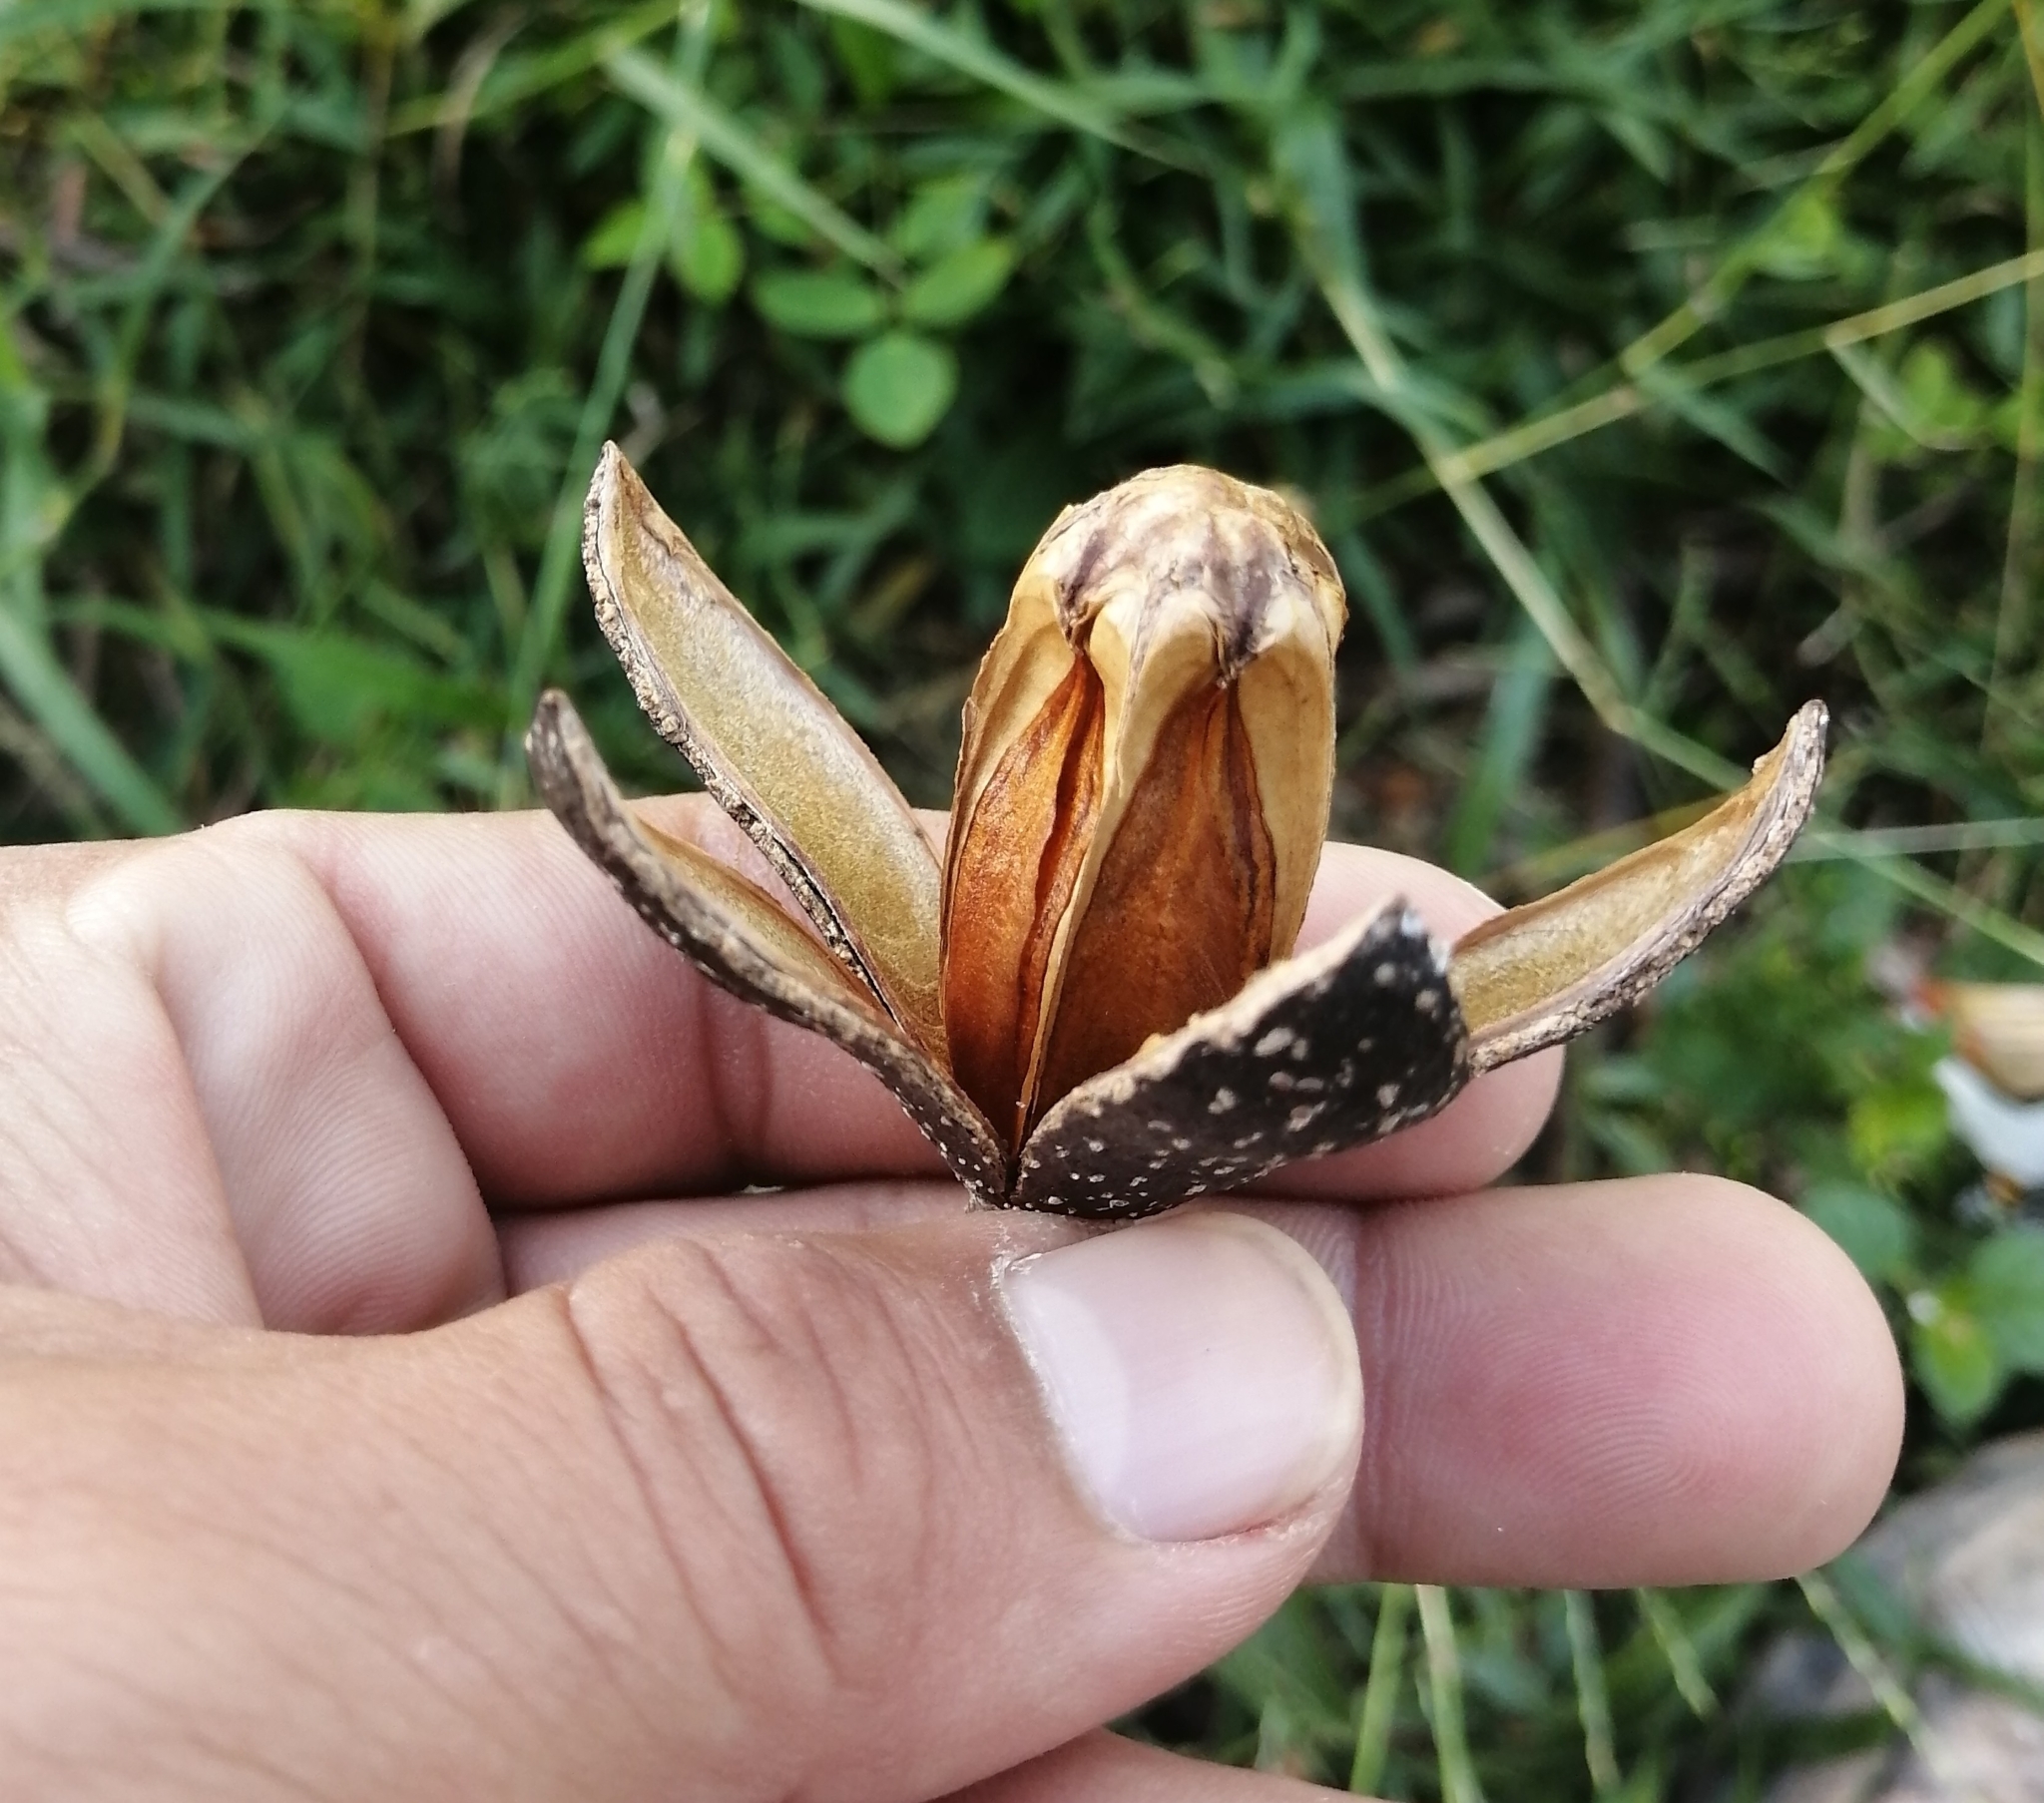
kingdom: Plantae
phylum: Tracheophyta
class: Magnoliopsida
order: Sapindales
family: Meliaceae
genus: Cedrela
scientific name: Cedrela odorata
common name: Red cedar
